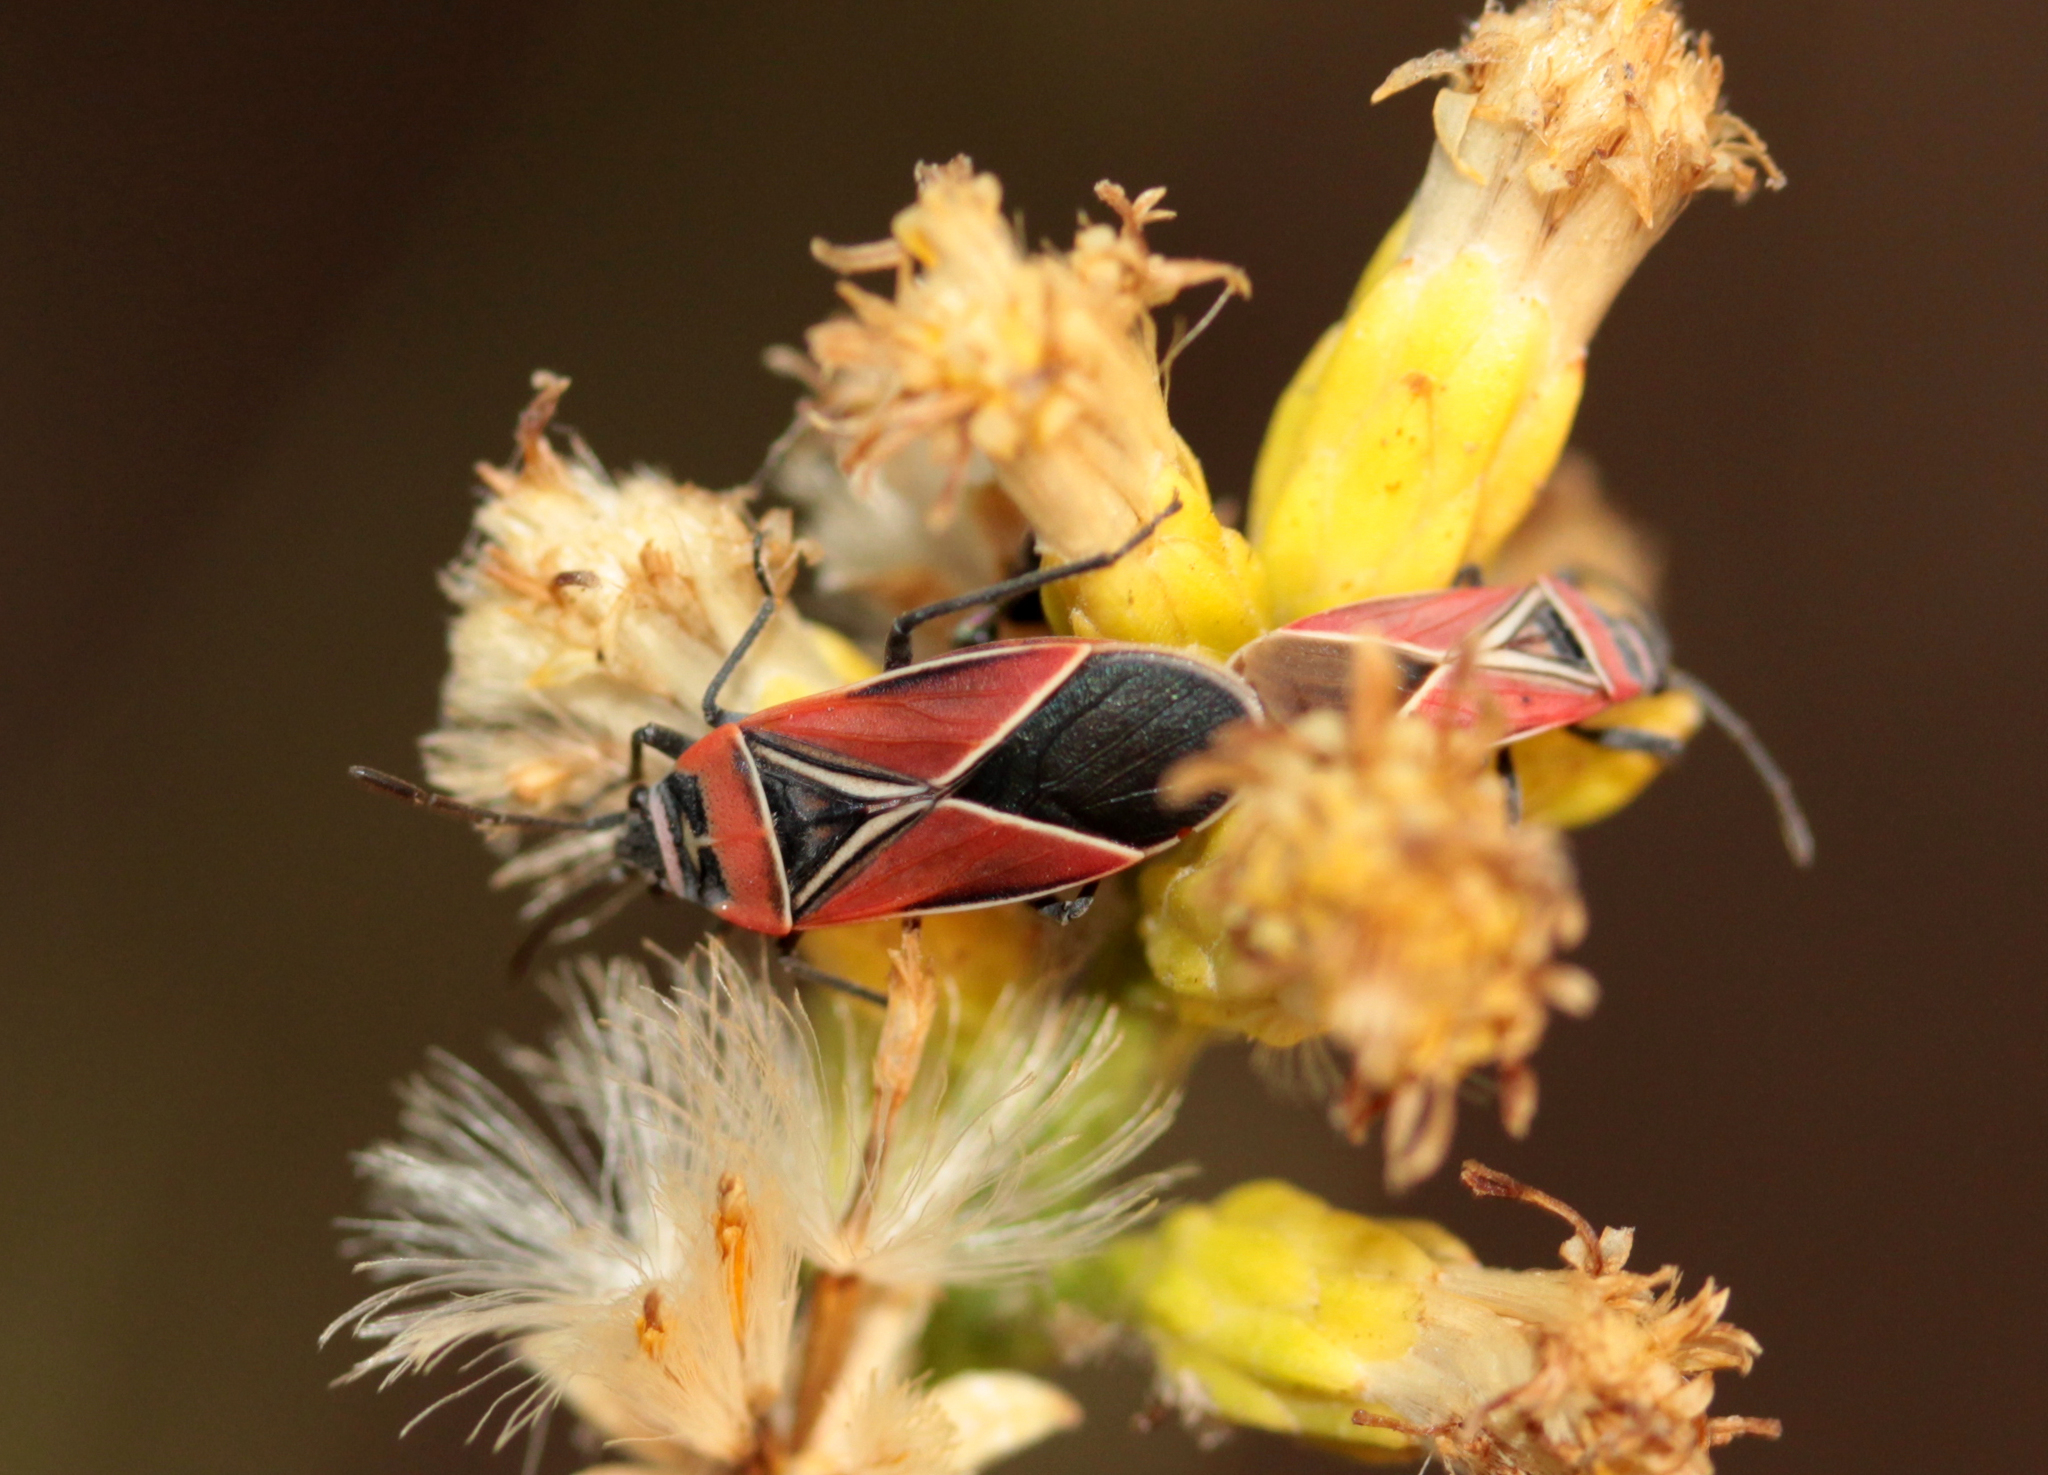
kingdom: Animalia
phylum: Arthropoda
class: Insecta
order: Hemiptera
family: Lygaeidae
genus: Neacoryphus
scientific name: Neacoryphus bicrucis
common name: Lygaeid bug
